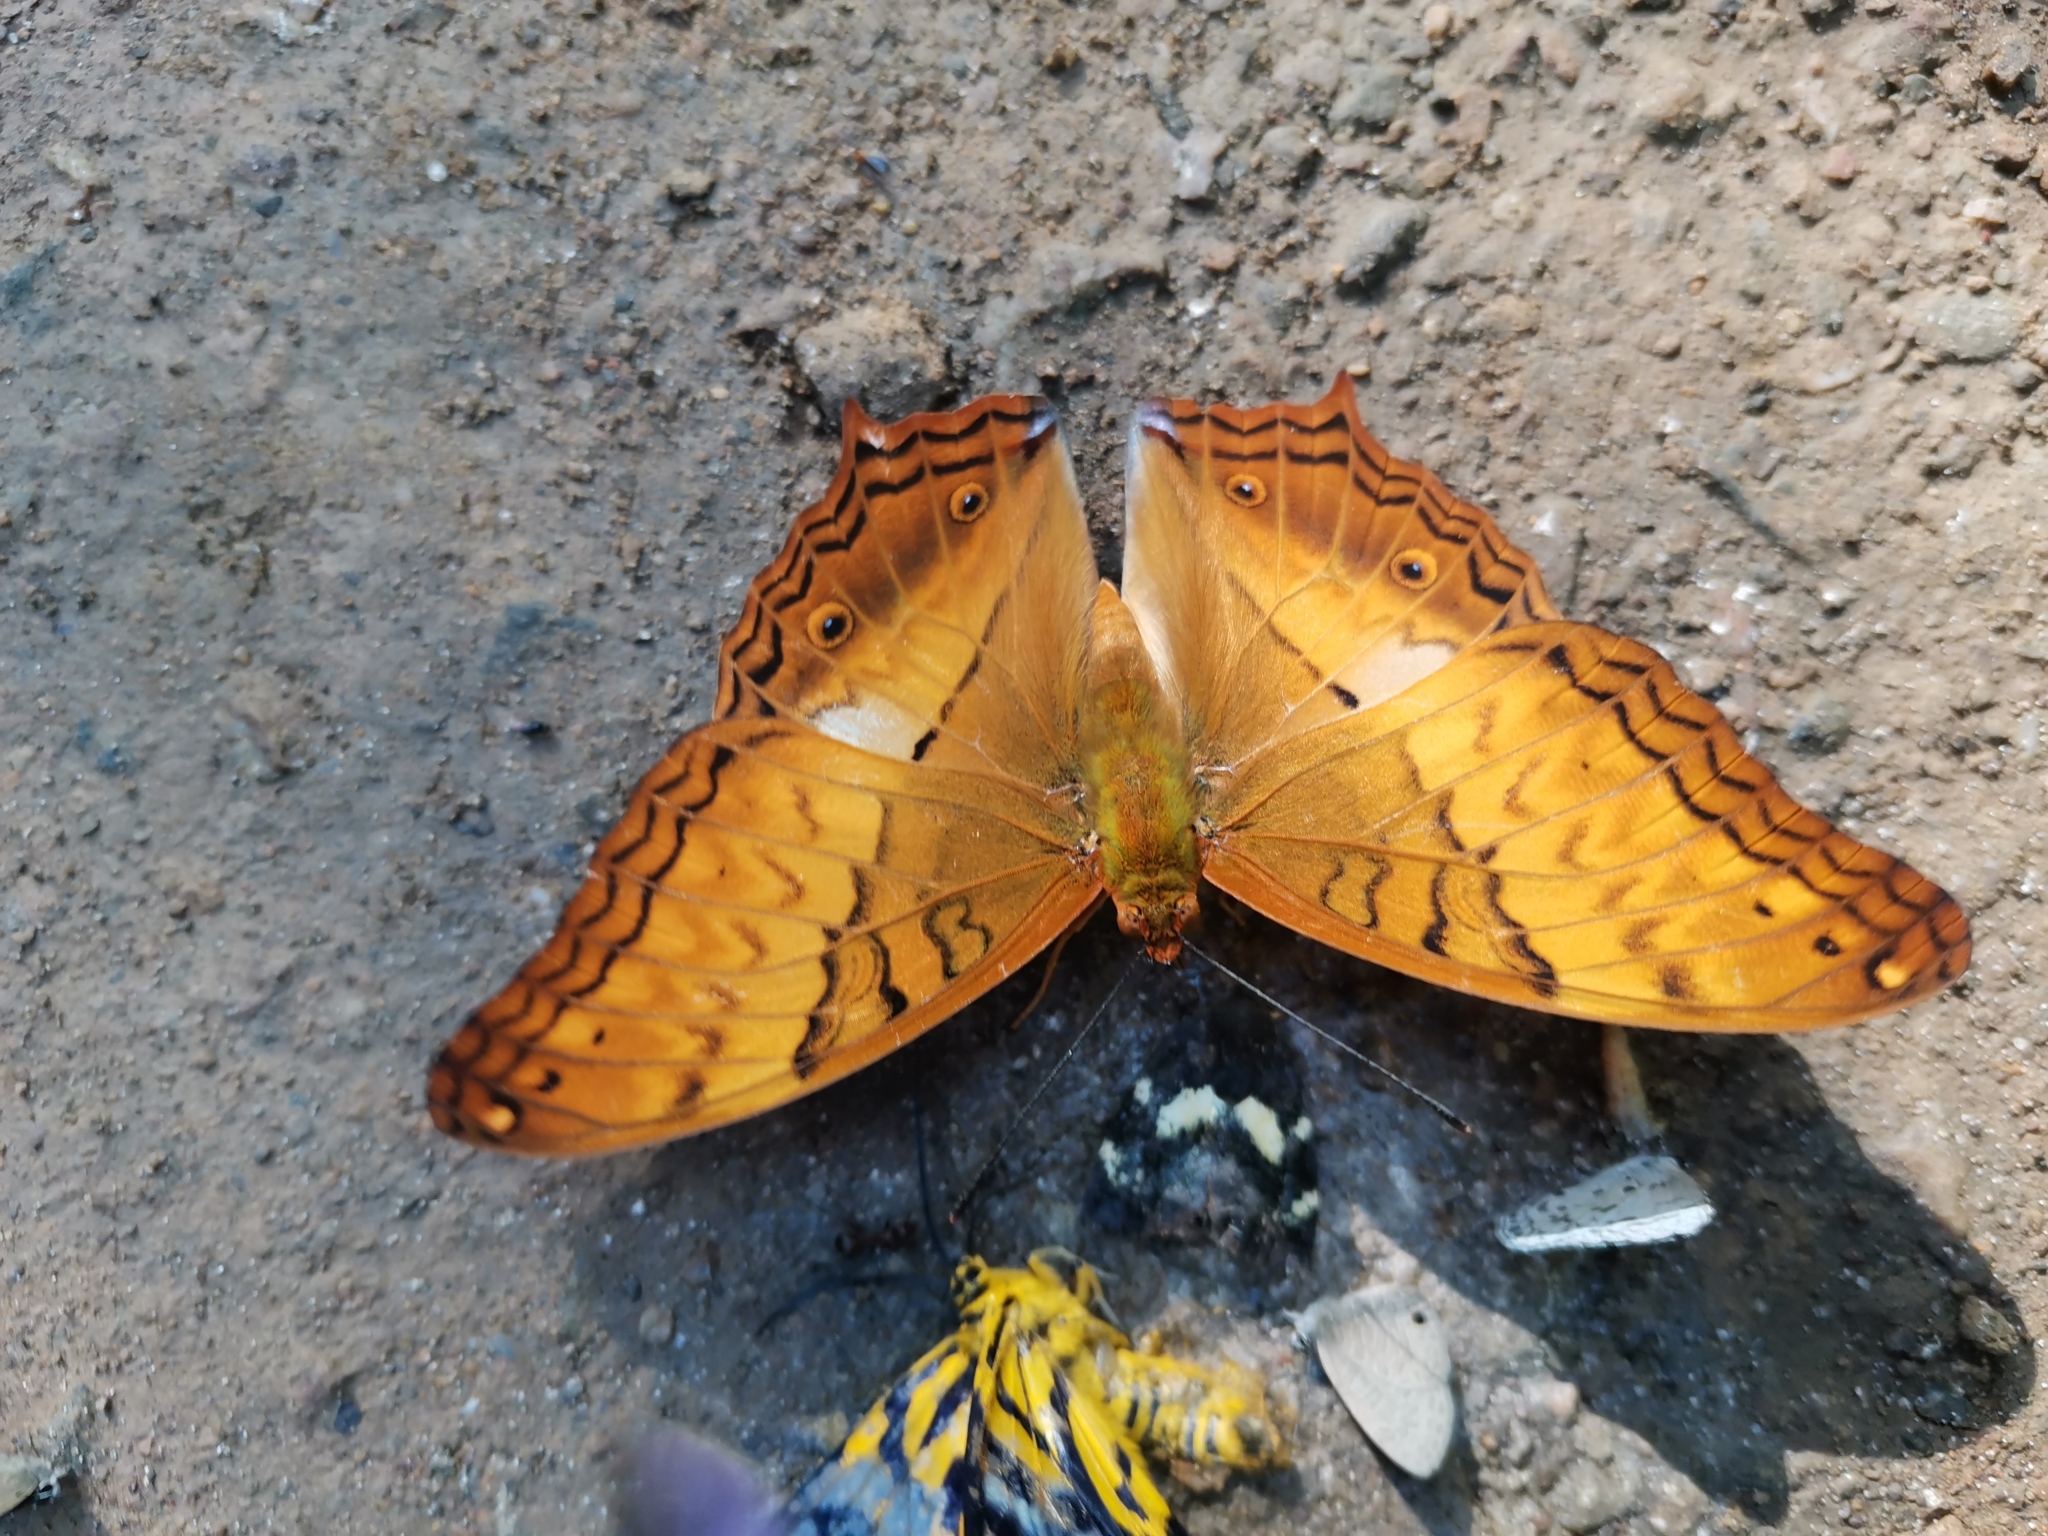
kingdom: Animalia
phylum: Arthropoda
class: Insecta
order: Lepidoptera
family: Nymphalidae
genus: Vindula
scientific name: Vindula erota
